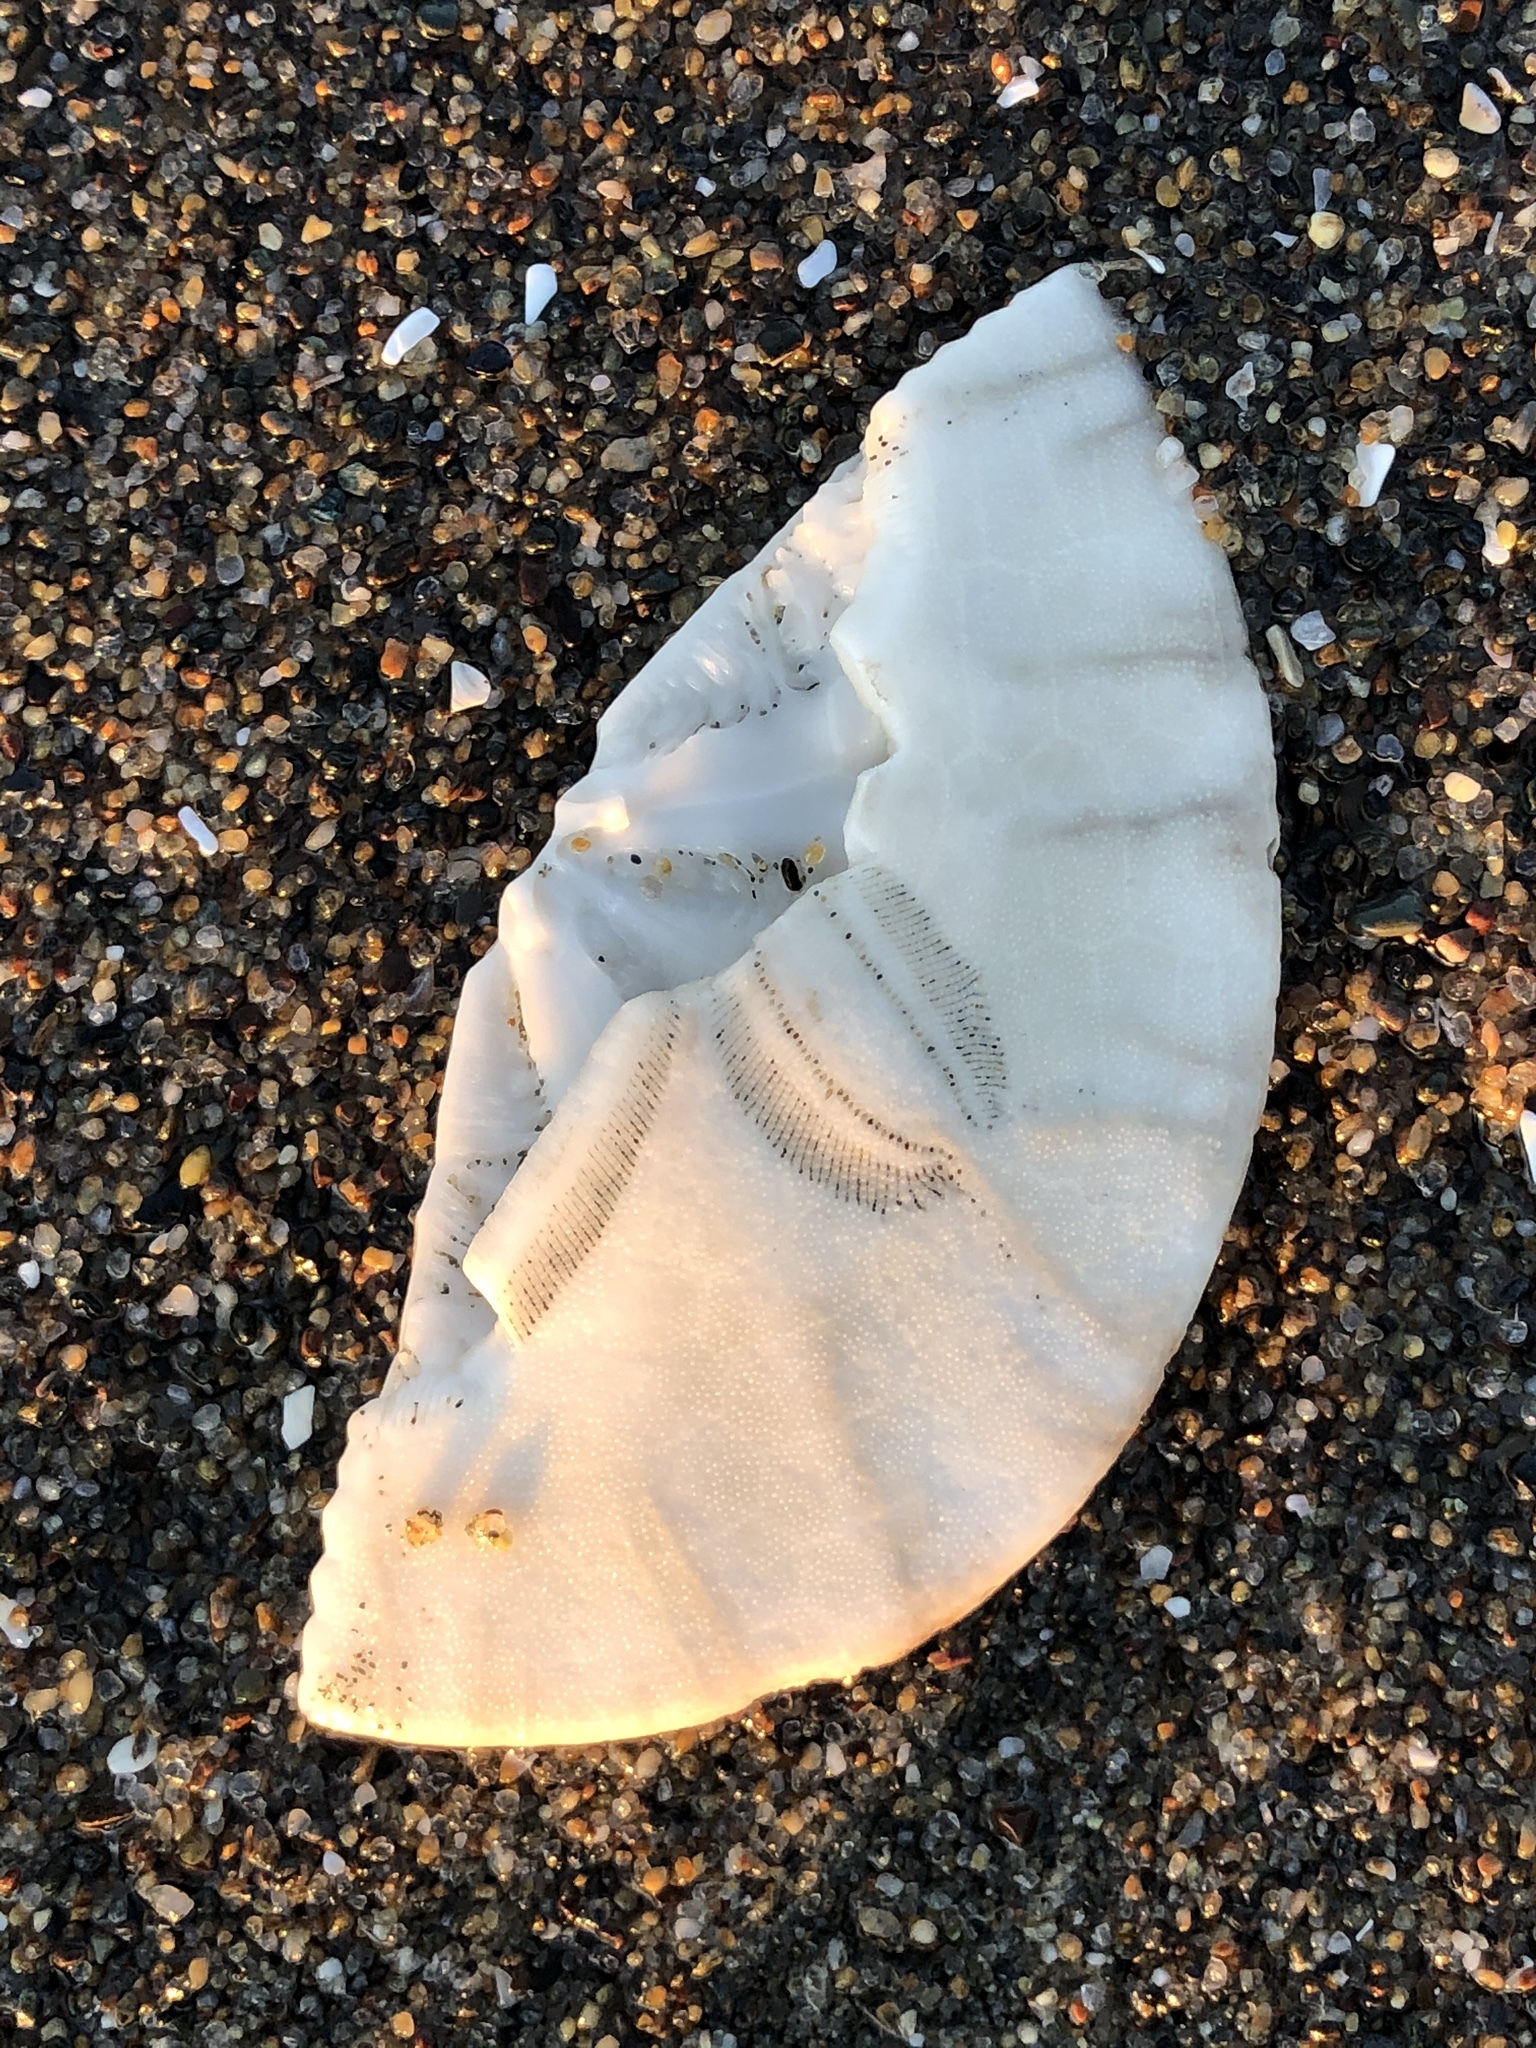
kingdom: Animalia
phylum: Echinodermata
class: Echinoidea
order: Echinolampadacea
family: Dendrasteridae
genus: Dendraster
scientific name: Dendraster excentricus
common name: Eccentric sand dollar sea urchin
